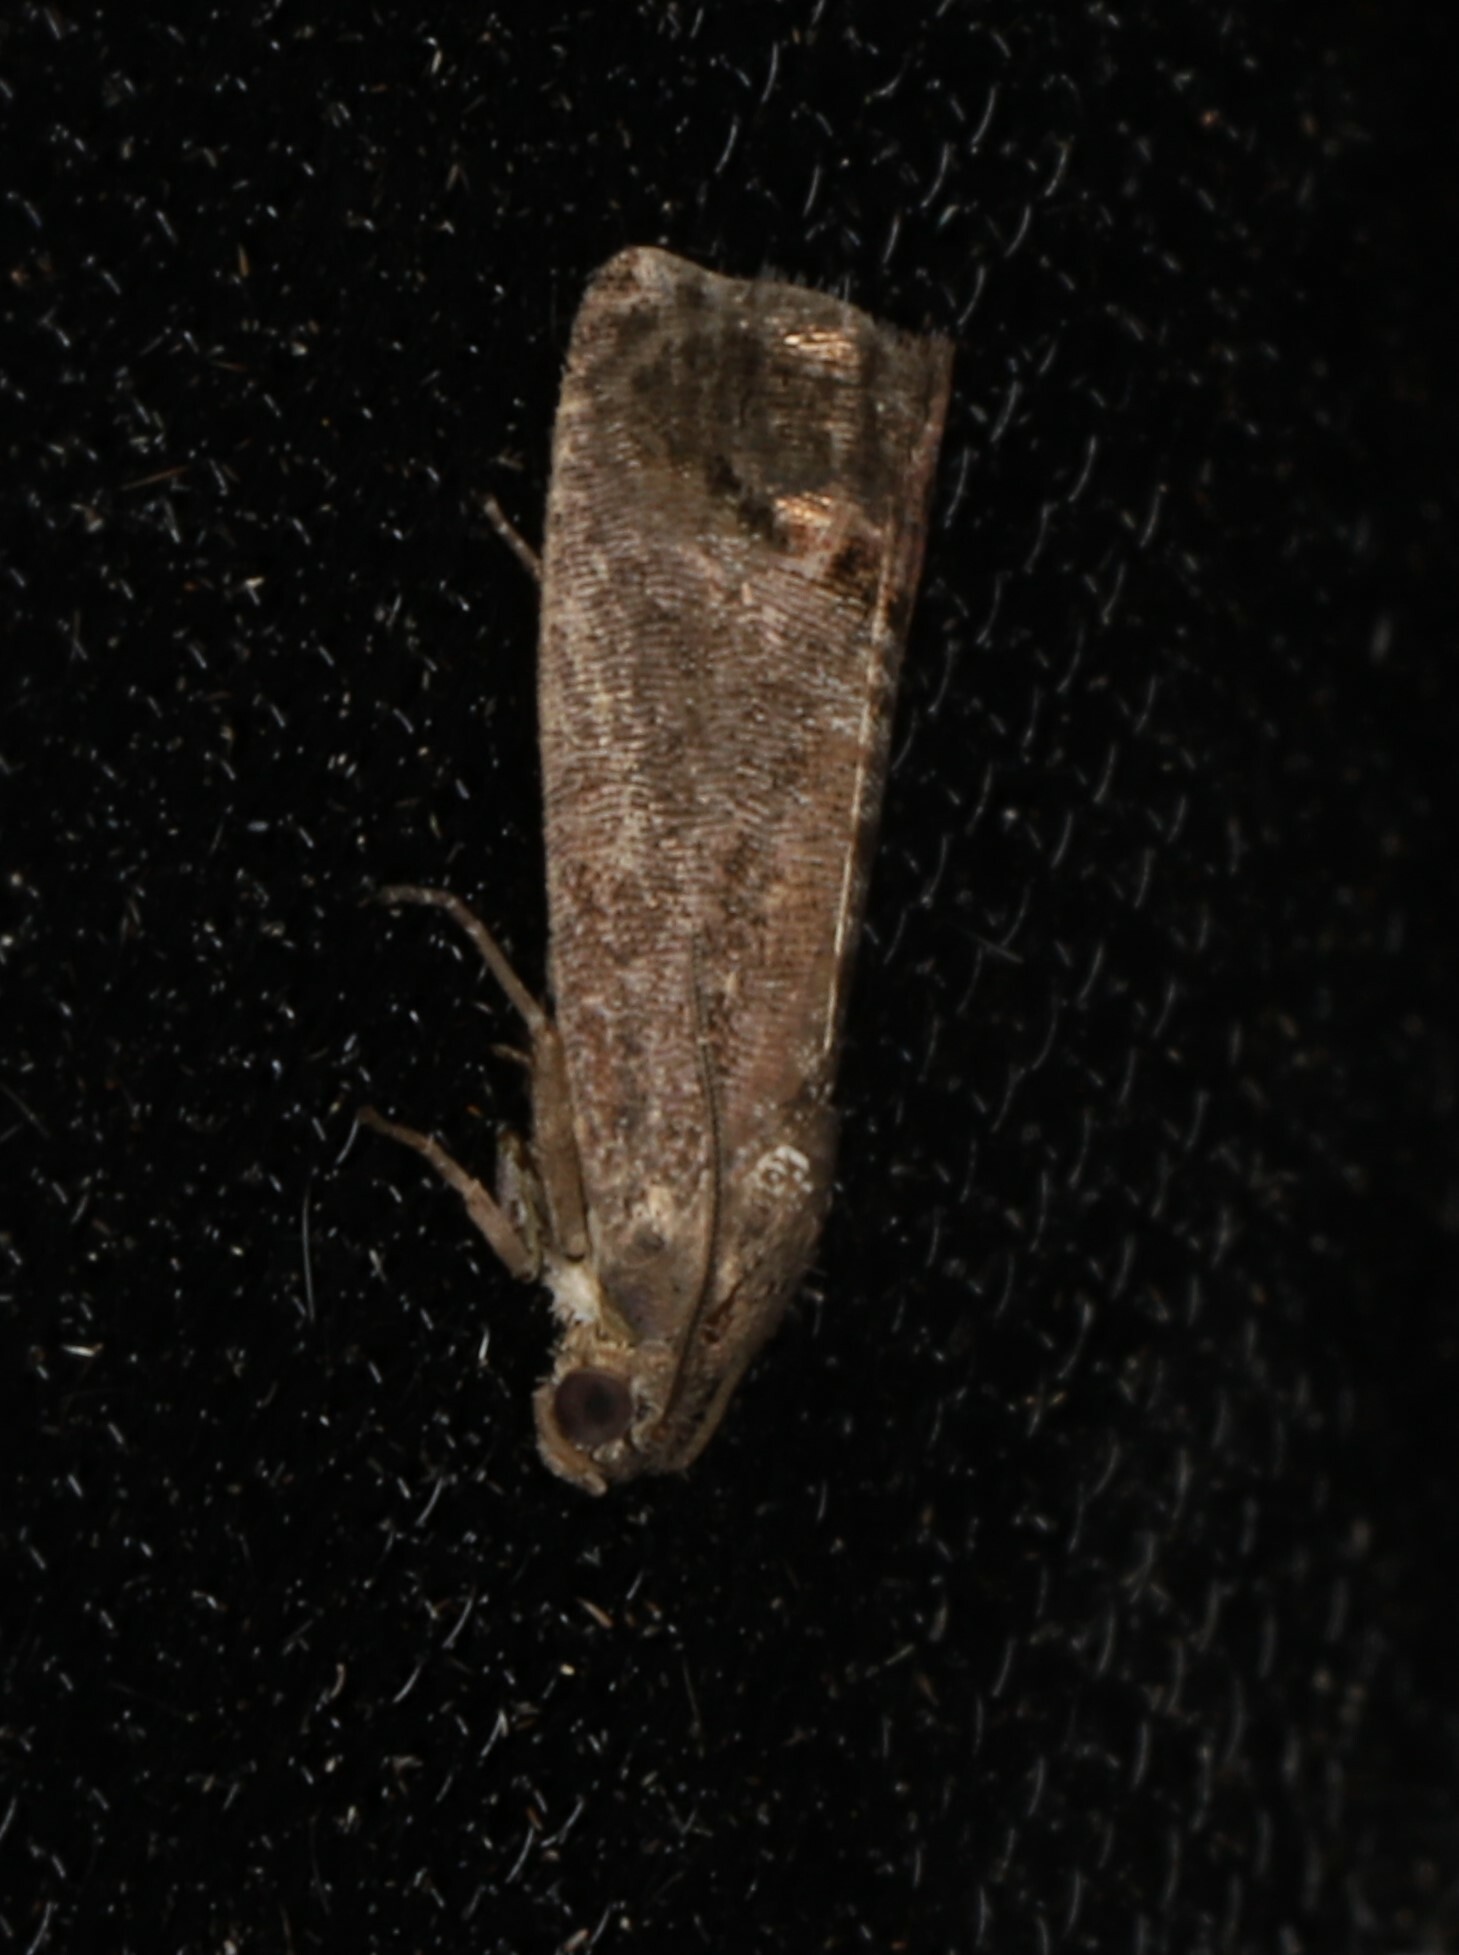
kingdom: Animalia
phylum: Arthropoda
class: Insecta
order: Lepidoptera
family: Tortricidae
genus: Cydia
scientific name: Cydia pomonella
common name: Codling moth
